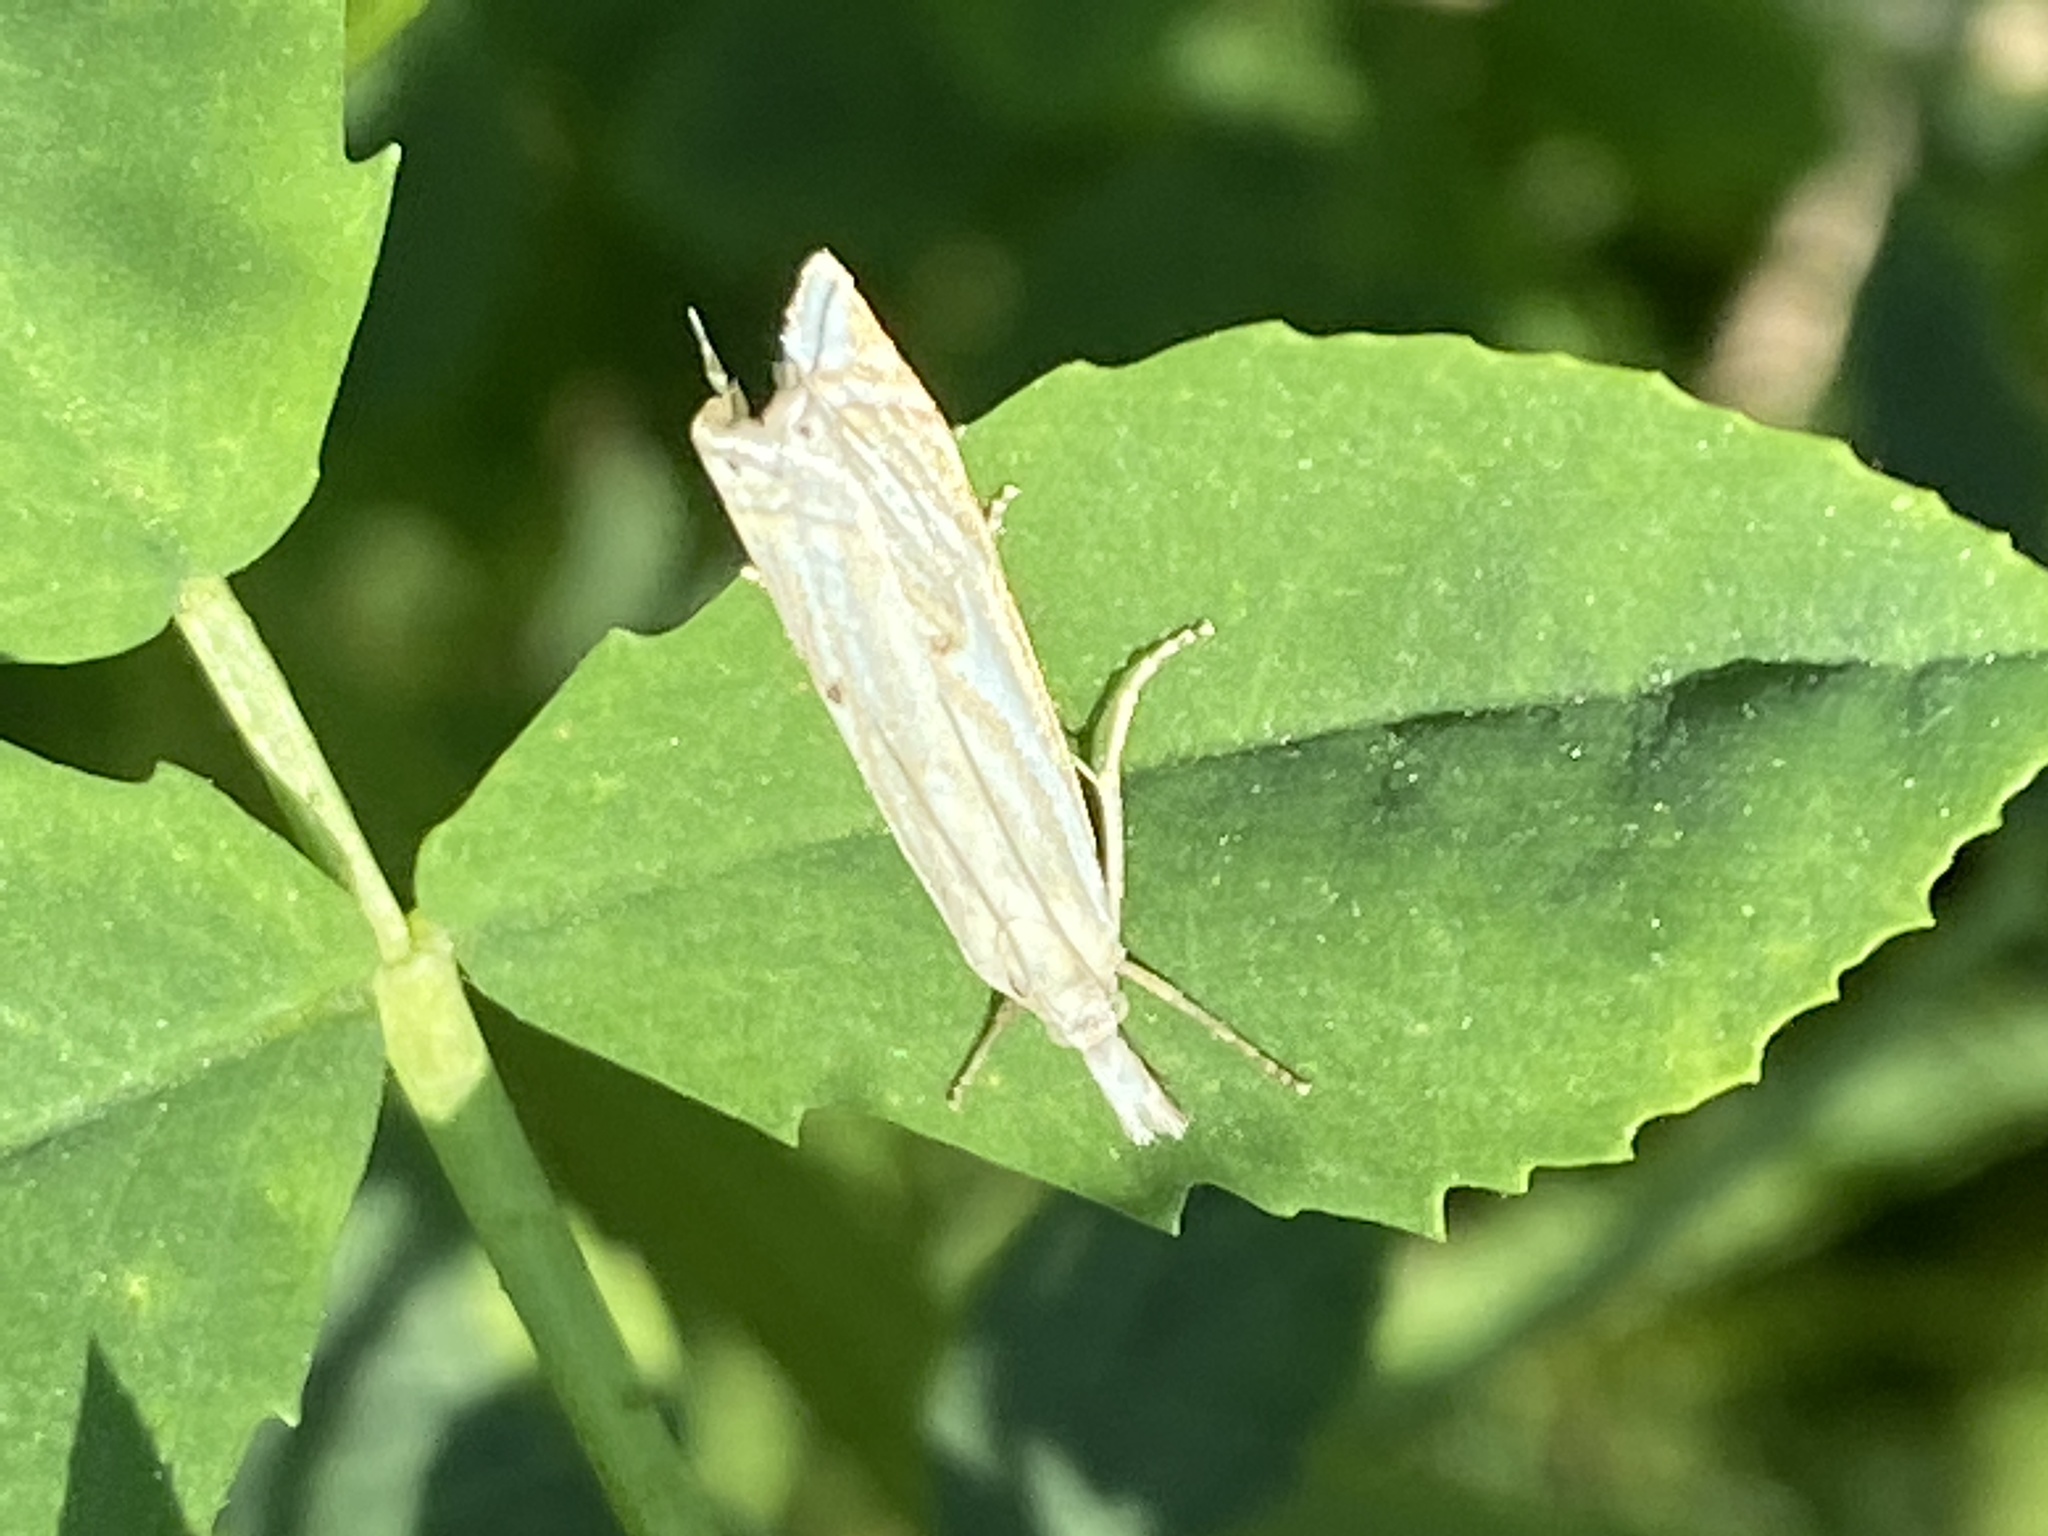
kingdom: Animalia
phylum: Arthropoda
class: Insecta
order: Lepidoptera
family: Crambidae
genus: Chrysoteuchia
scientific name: Chrysoteuchia culmella
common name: Garden grass-veneer
